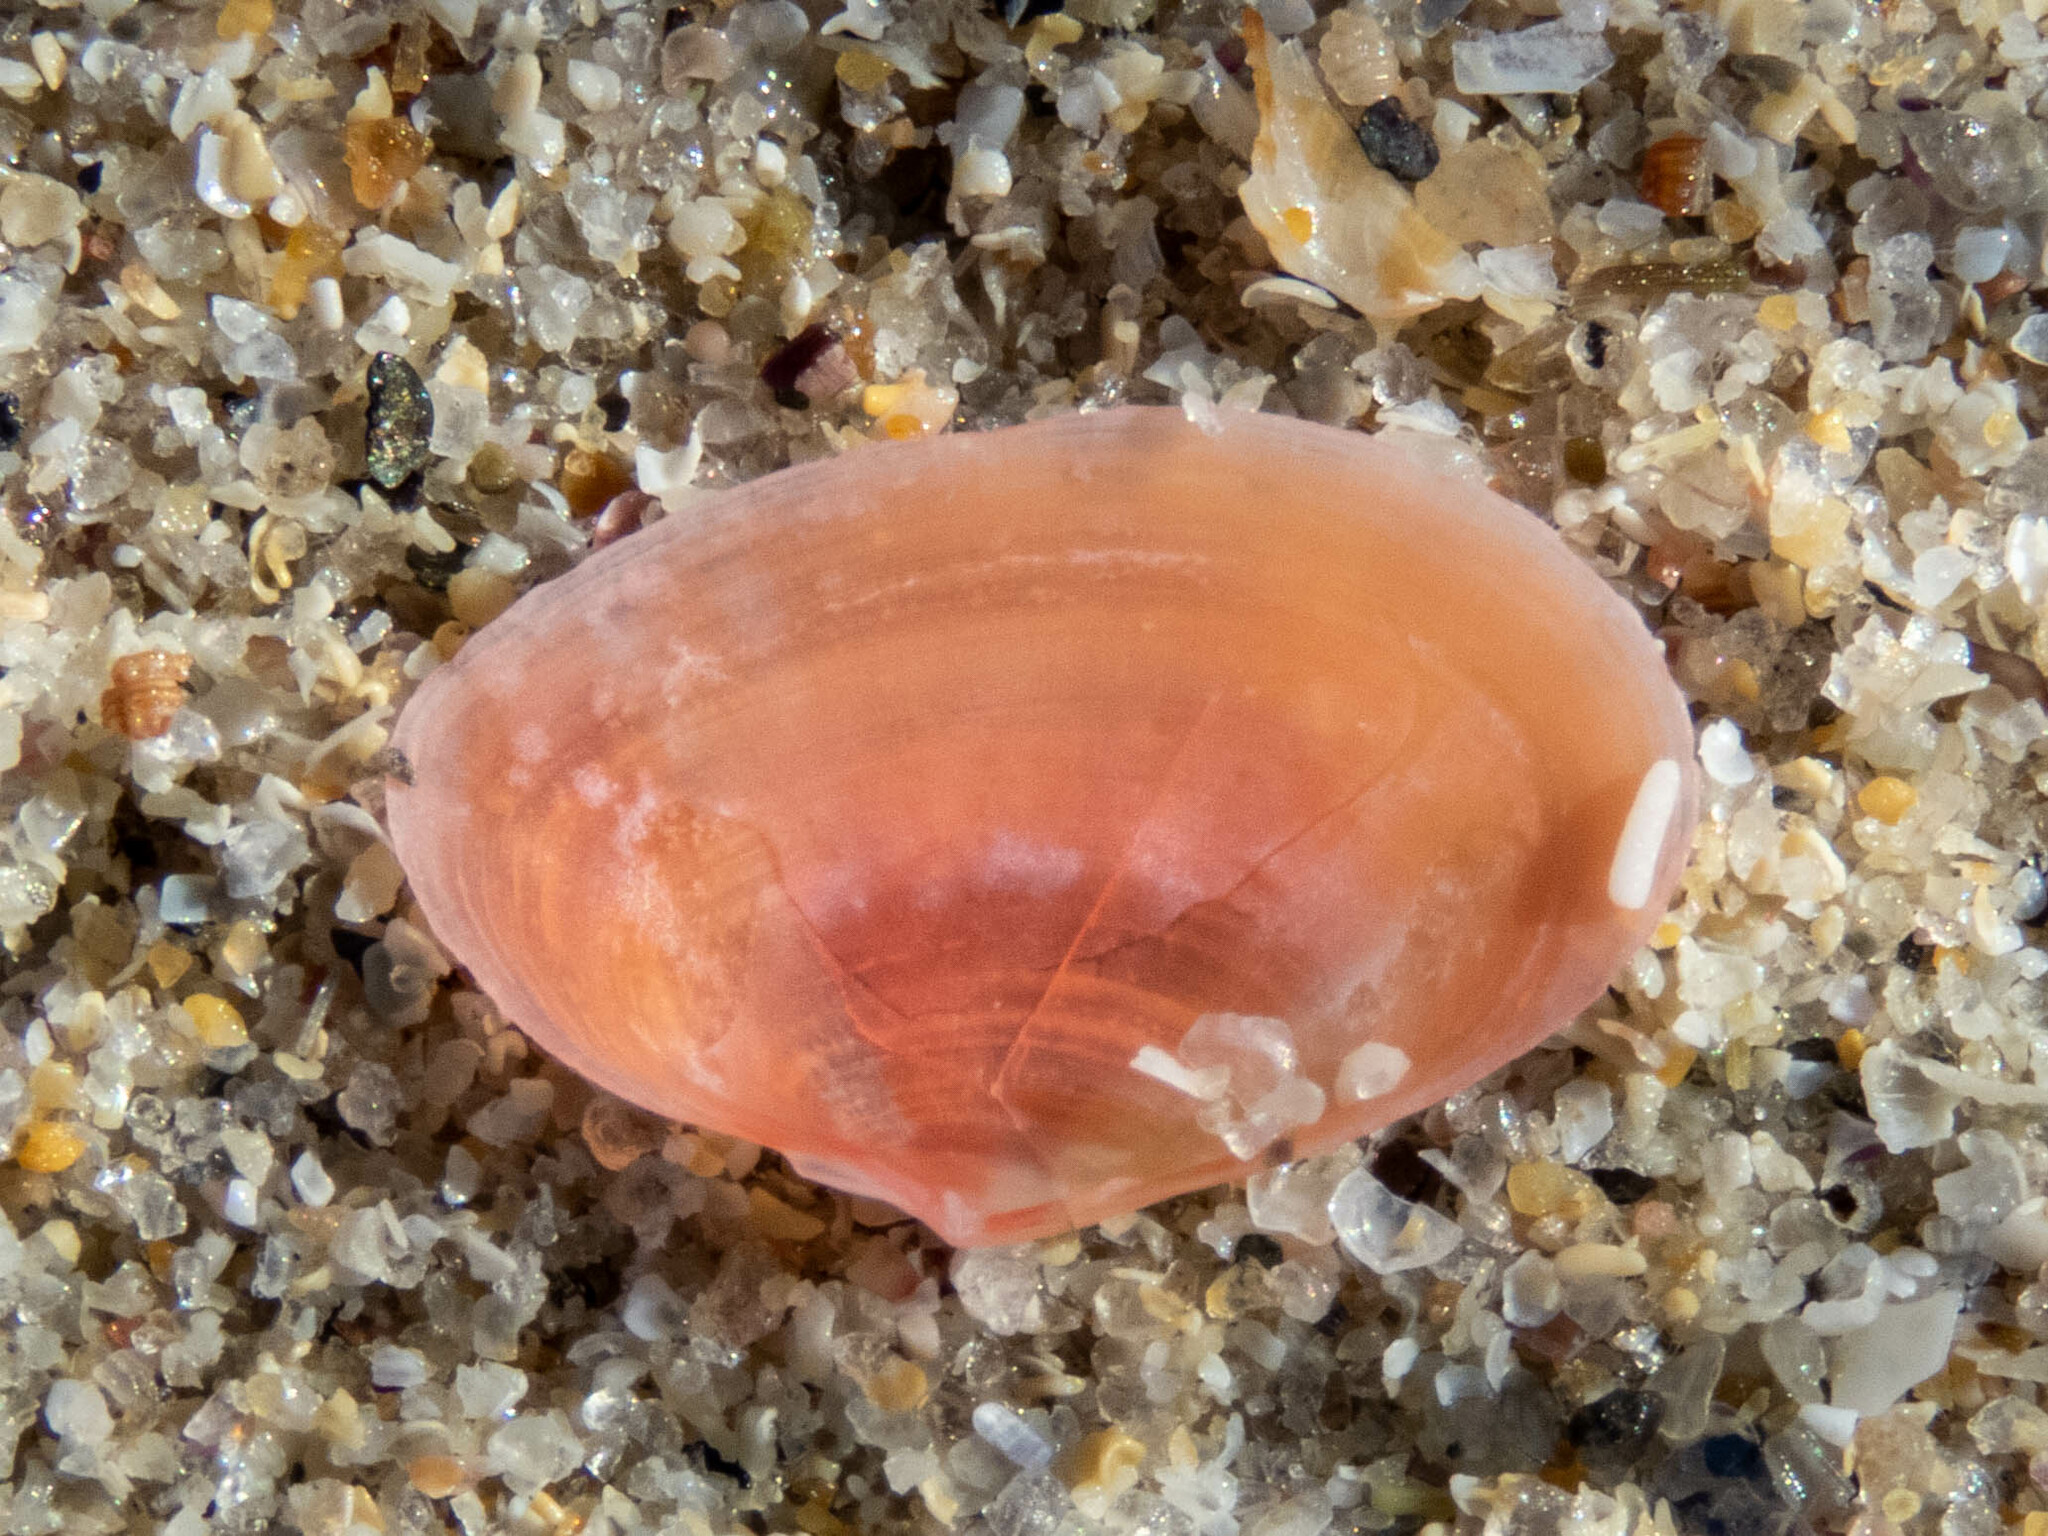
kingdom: Animalia
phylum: Mollusca
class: Bivalvia
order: Cardiida
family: Tellinidae
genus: Macomangulus
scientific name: Macomangulus tenuis
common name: Thin tellin
